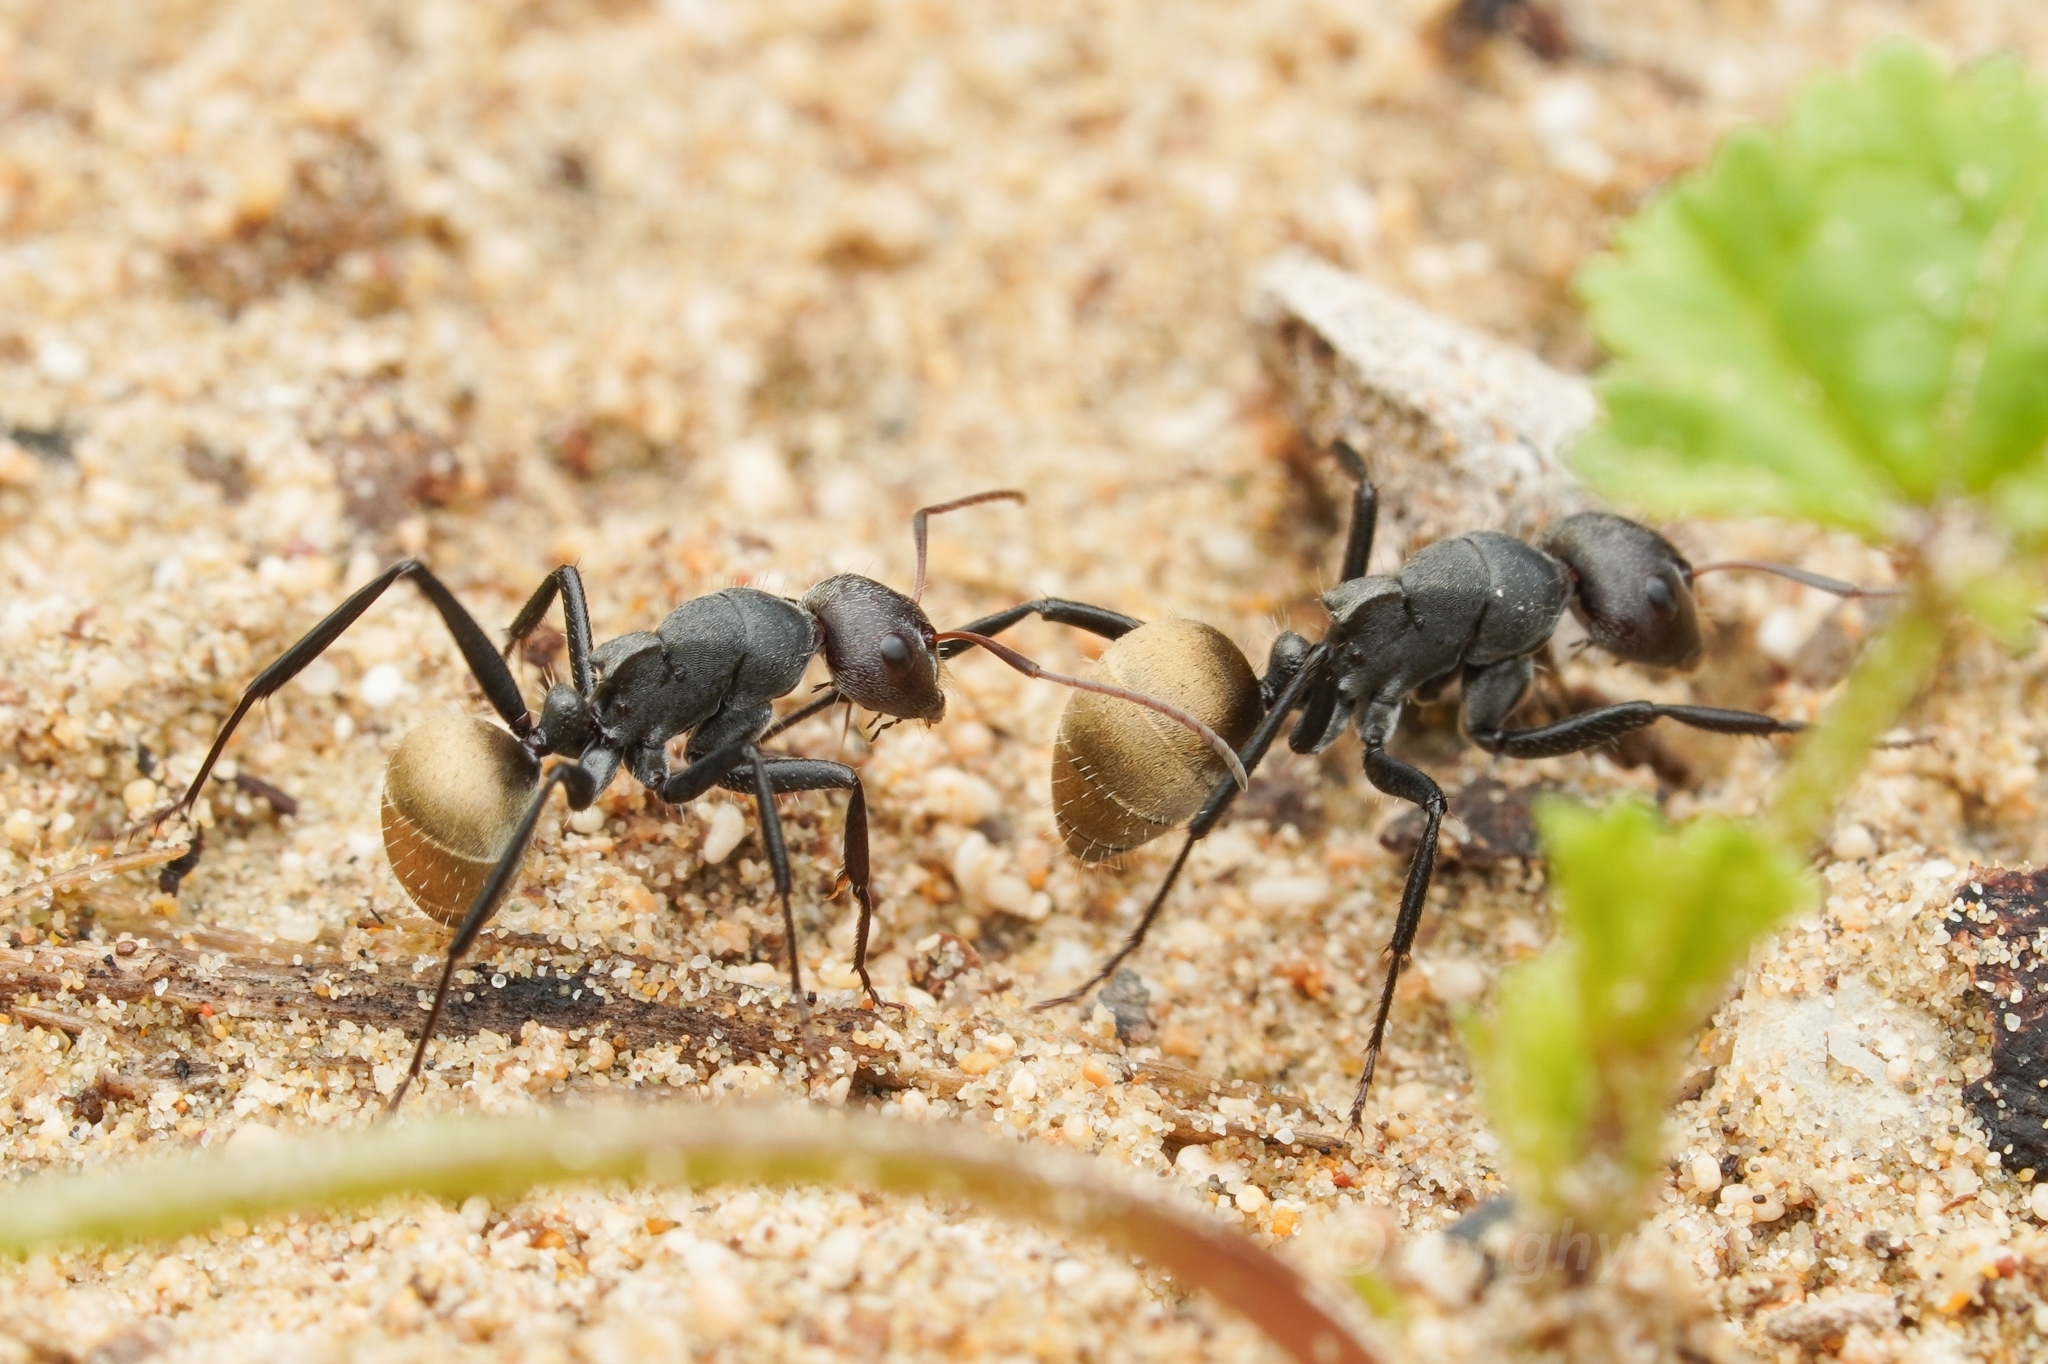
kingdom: Animalia
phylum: Arthropoda
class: Insecta
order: Hymenoptera
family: Formicidae
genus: Camponotus
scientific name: Camponotus sericeus
